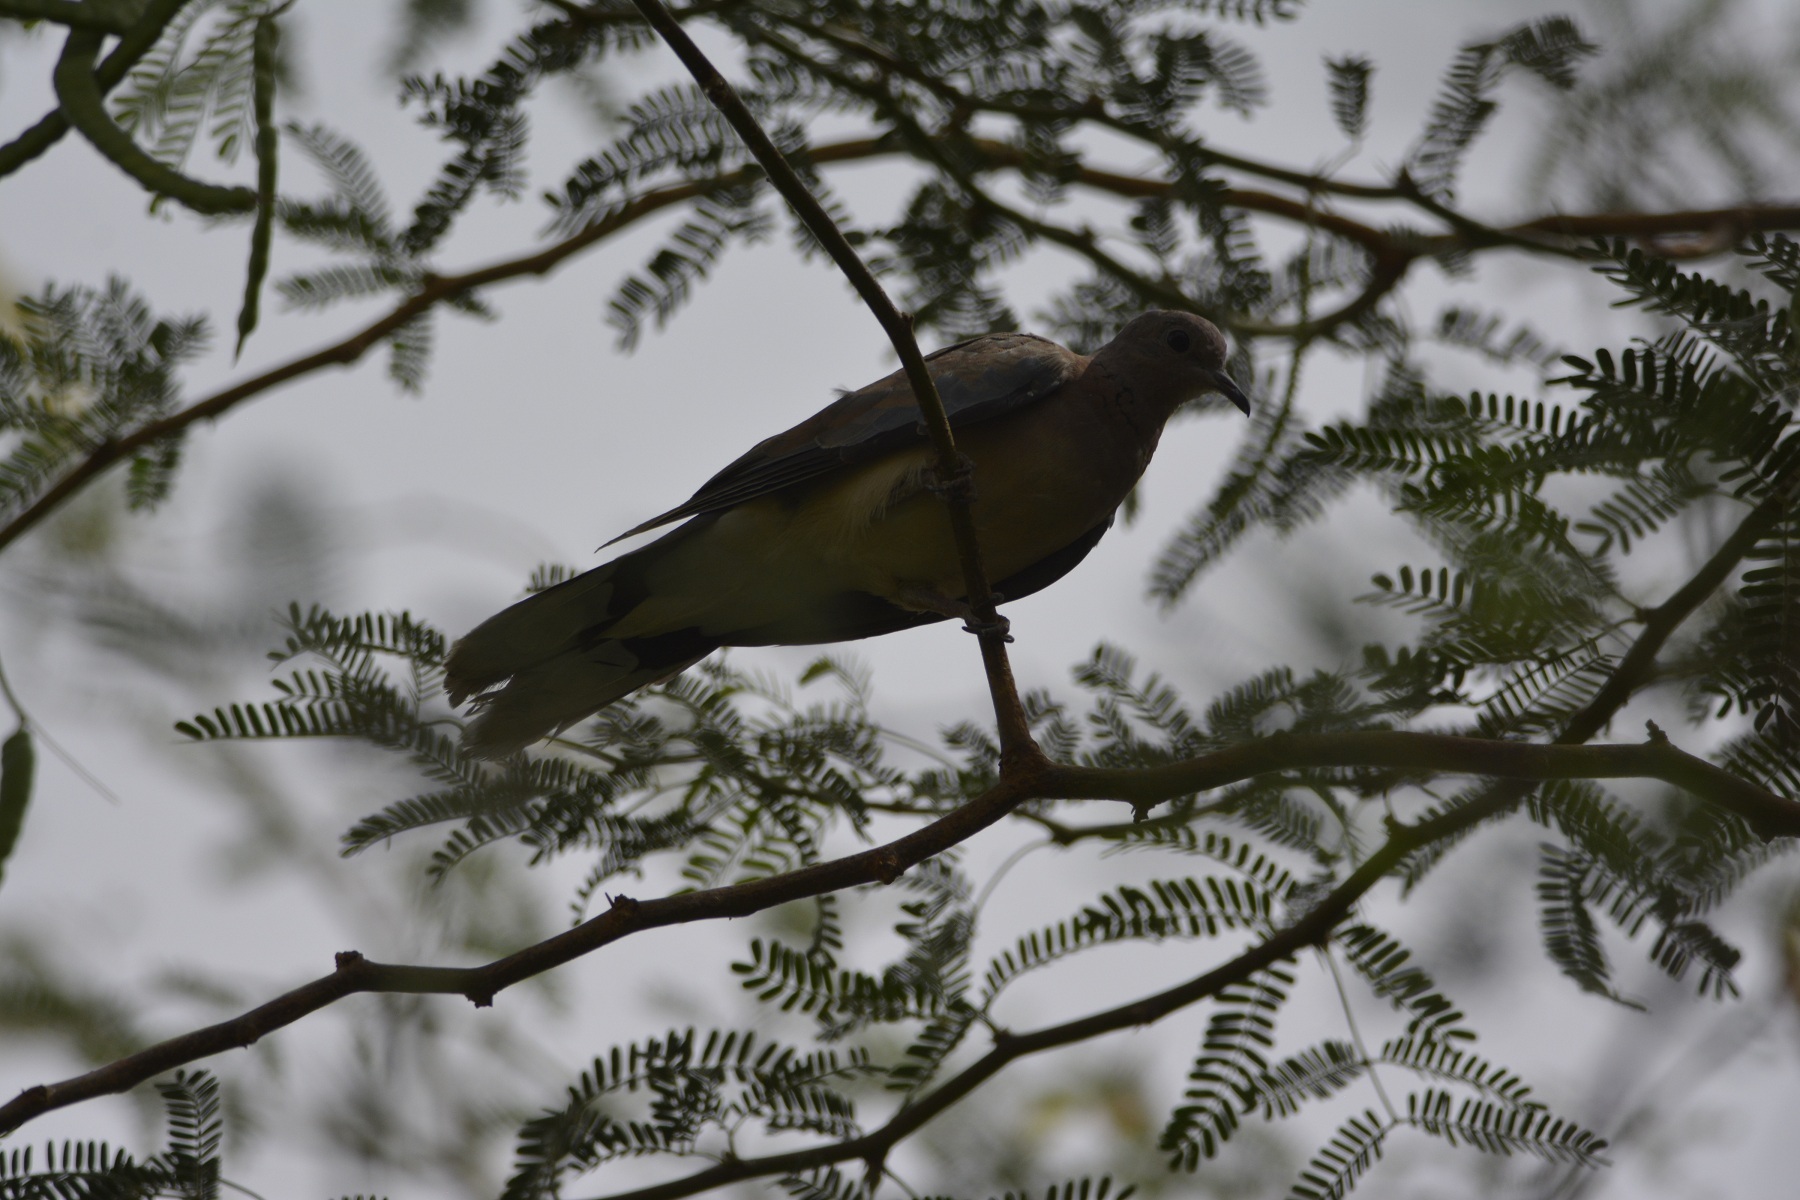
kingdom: Animalia
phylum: Chordata
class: Aves
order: Columbiformes
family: Columbidae
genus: Spilopelia
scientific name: Spilopelia senegalensis
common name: Laughing dove
